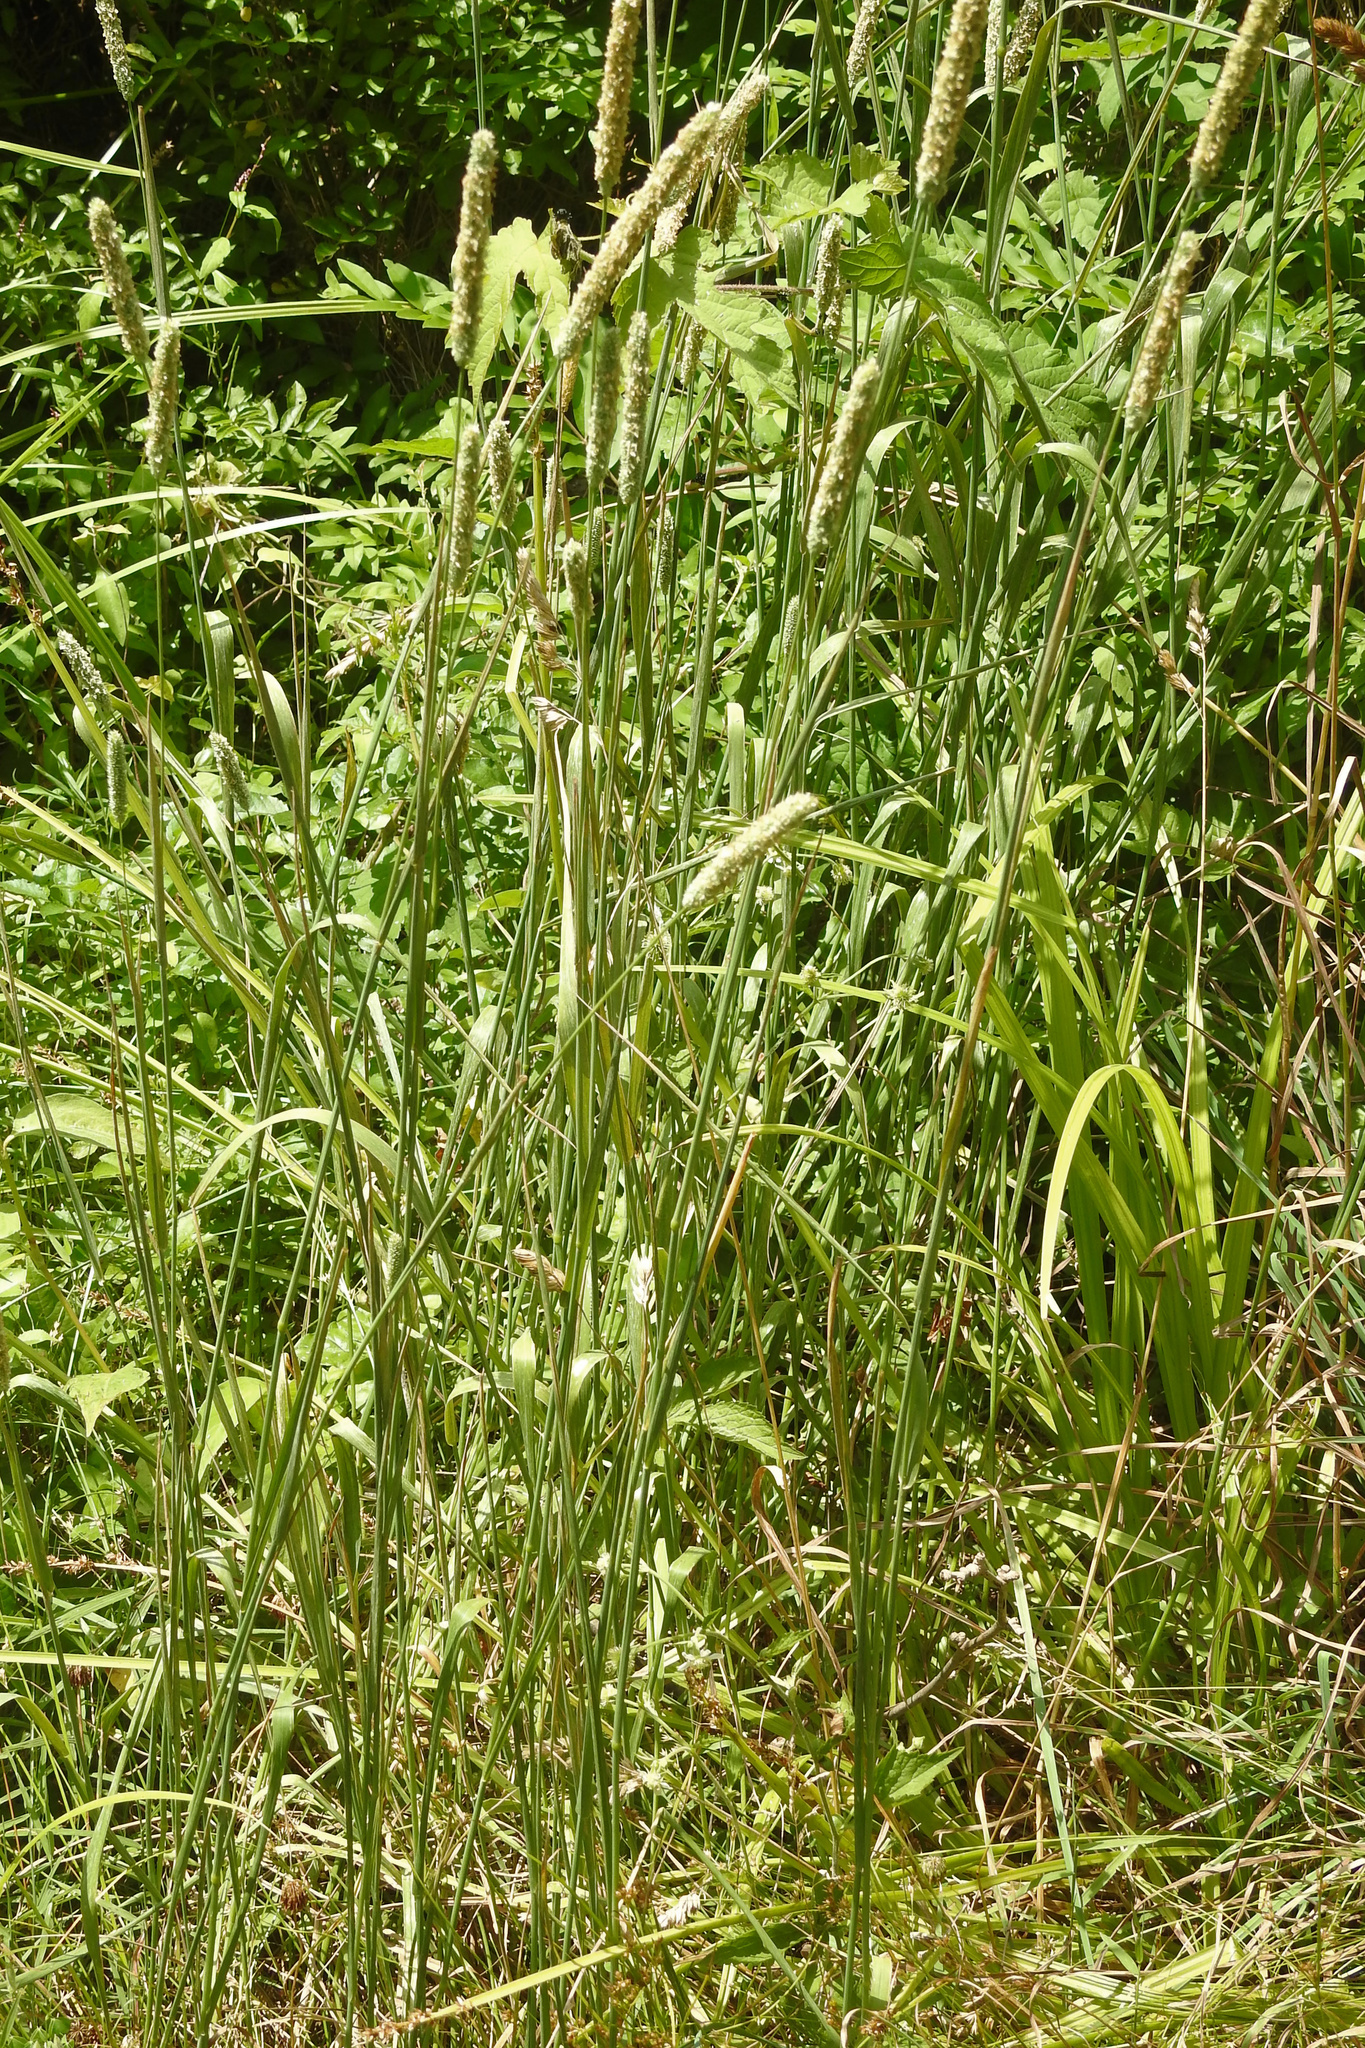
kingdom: Plantae
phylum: Tracheophyta
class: Liliopsida
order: Poales
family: Poaceae
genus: Phleum
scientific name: Phleum pratense
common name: Timothy grass
